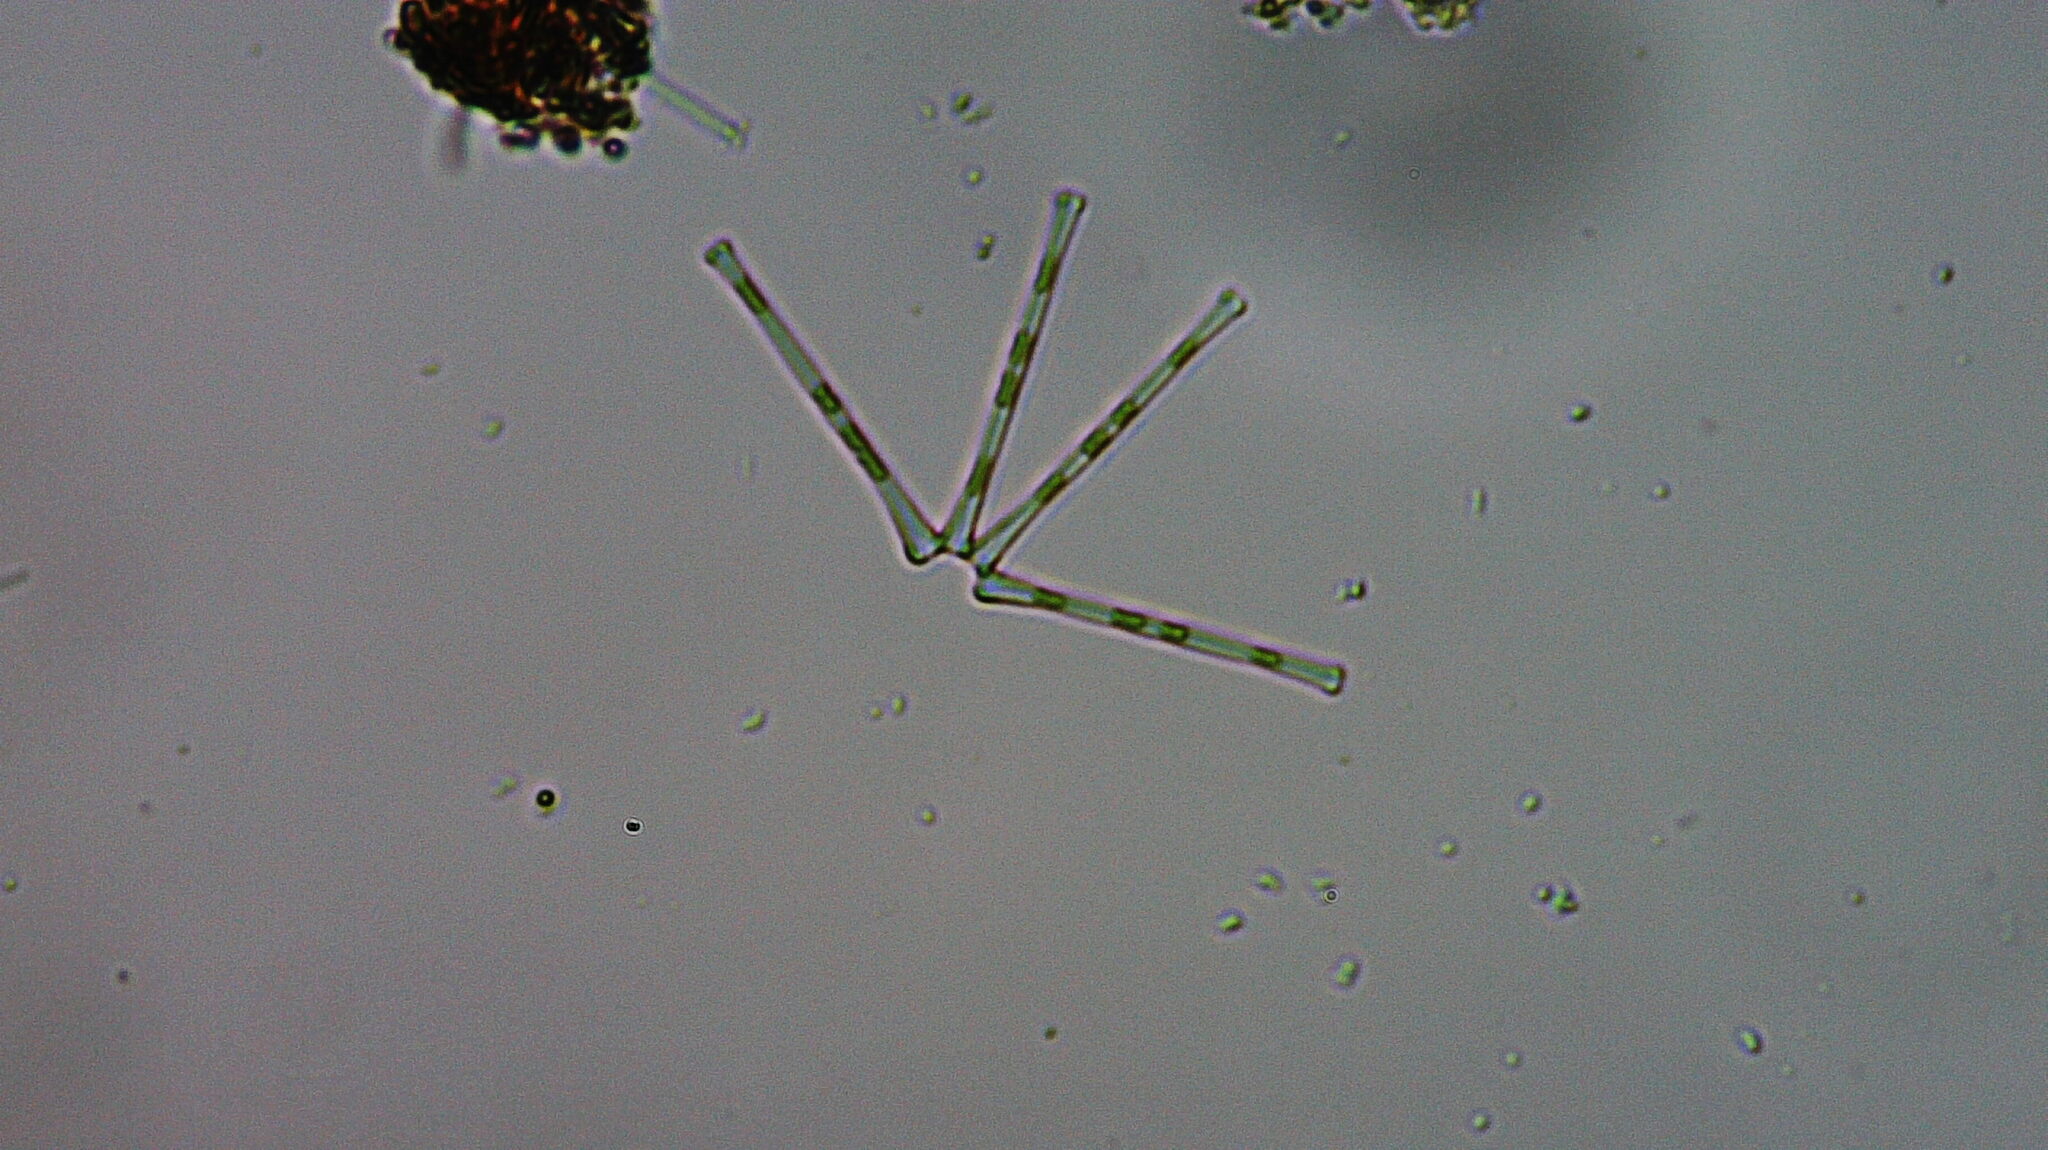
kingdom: Chromista
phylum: Ochrophyta
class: Bacillariophyceae
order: Fragilariales
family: Fragilariaceae
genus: Asterionella
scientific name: Asterionella formosa
